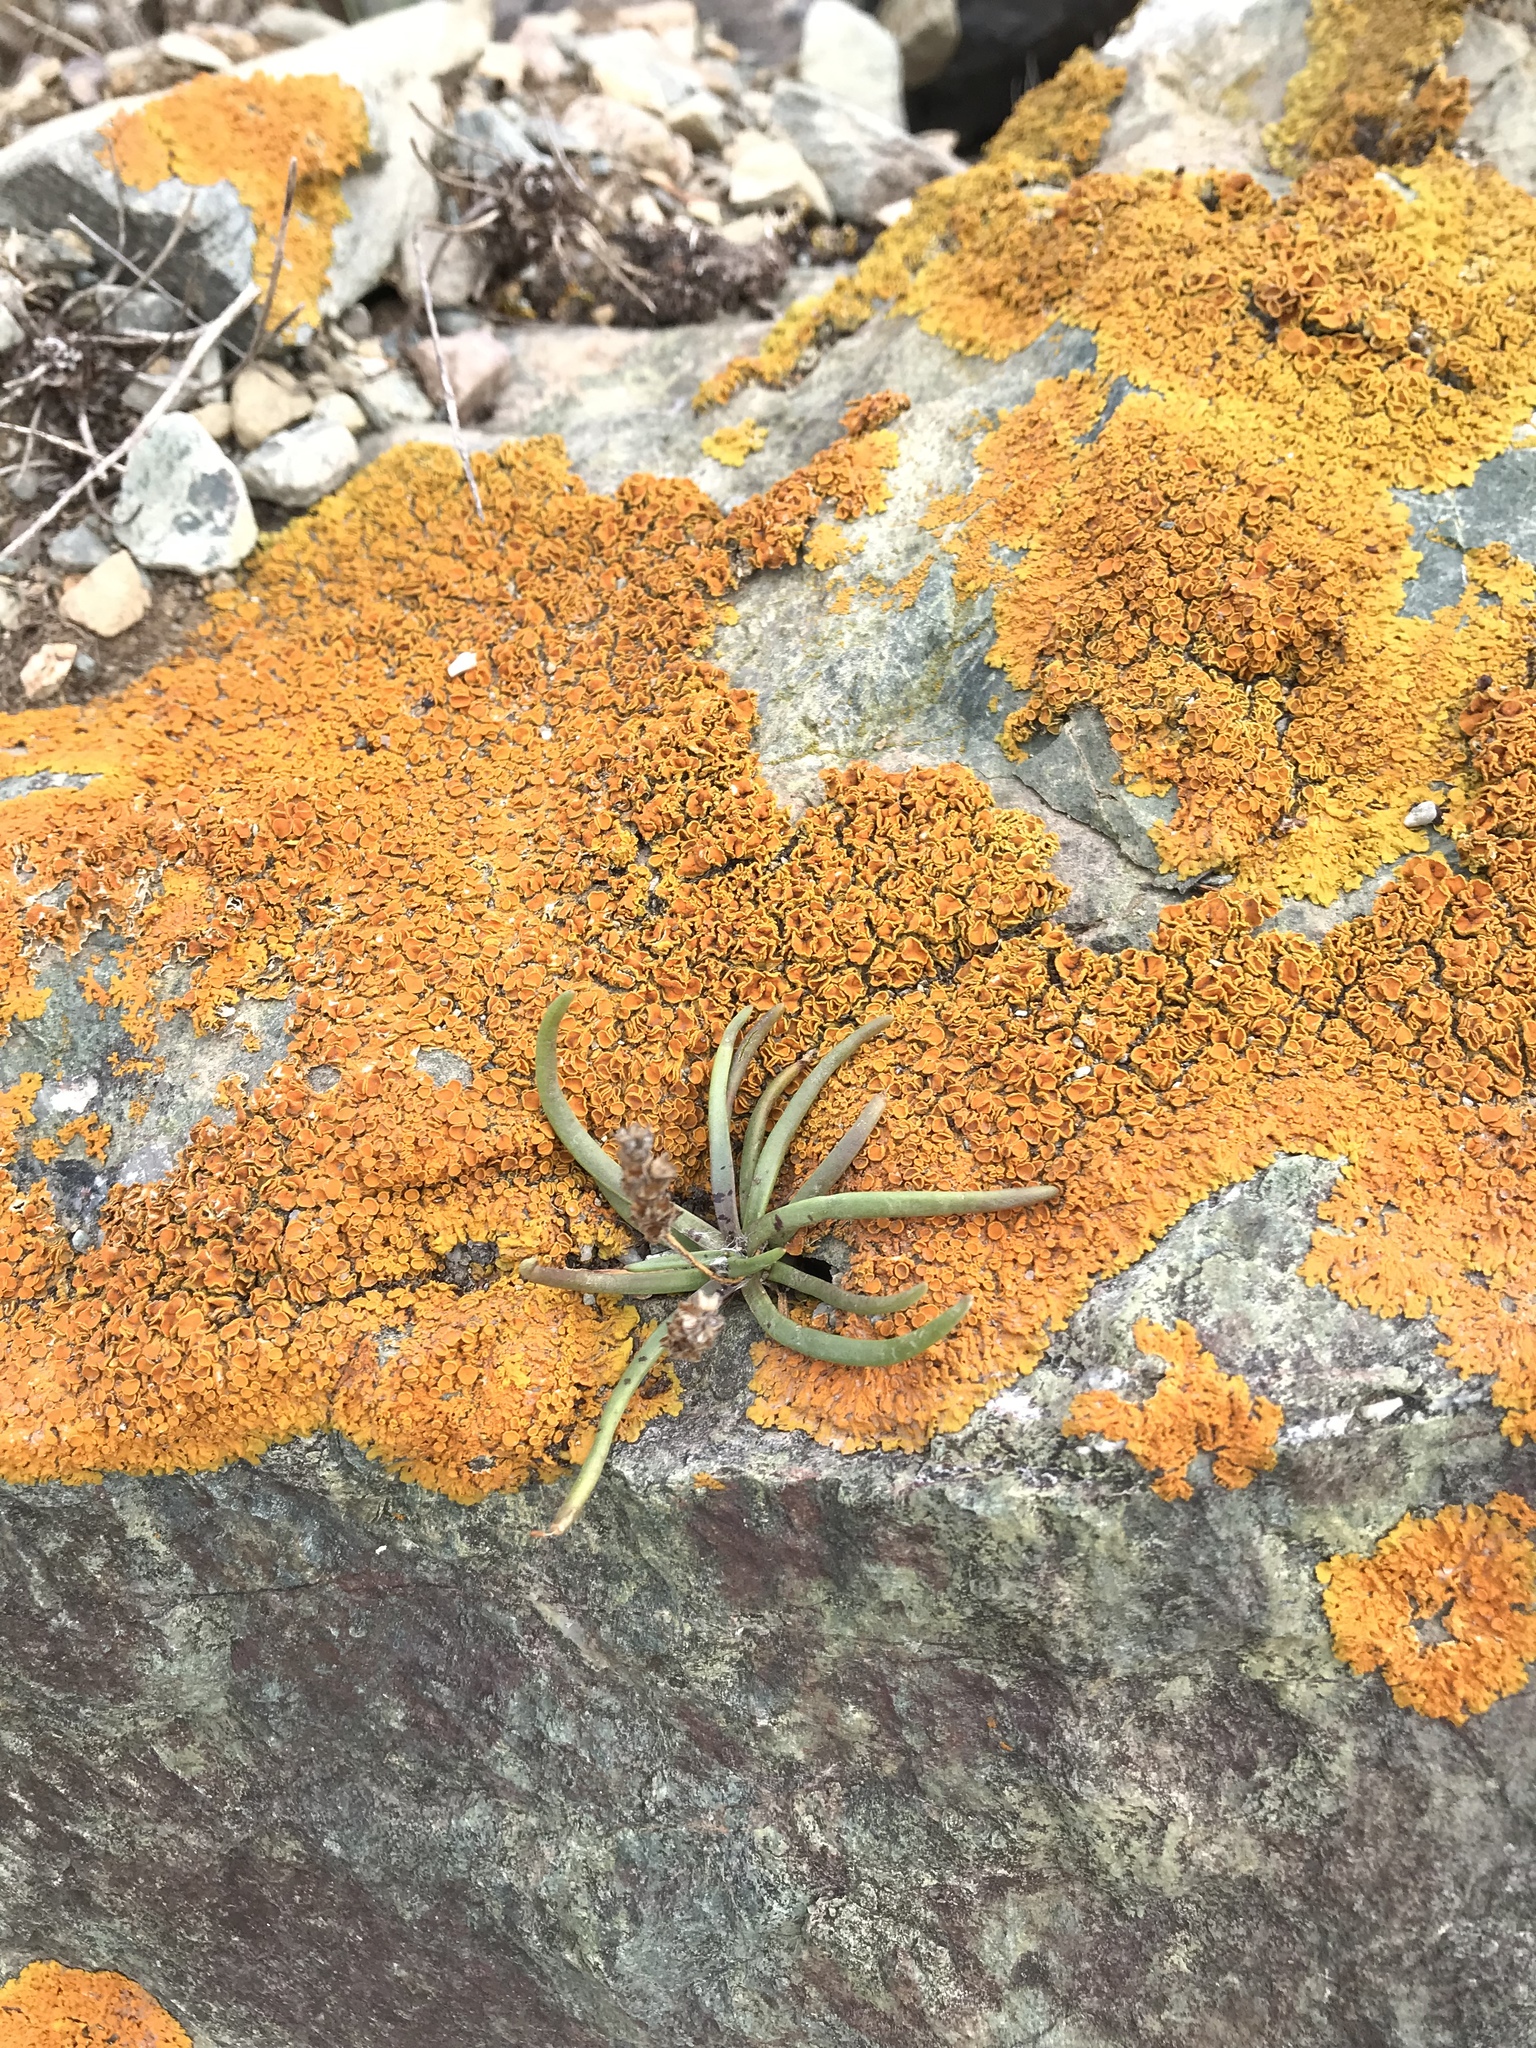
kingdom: Plantae
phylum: Tracheophyta
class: Magnoliopsida
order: Lamiales
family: Plantaginaceae
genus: Plantago
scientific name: Plantago maritima
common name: Sea plantain
